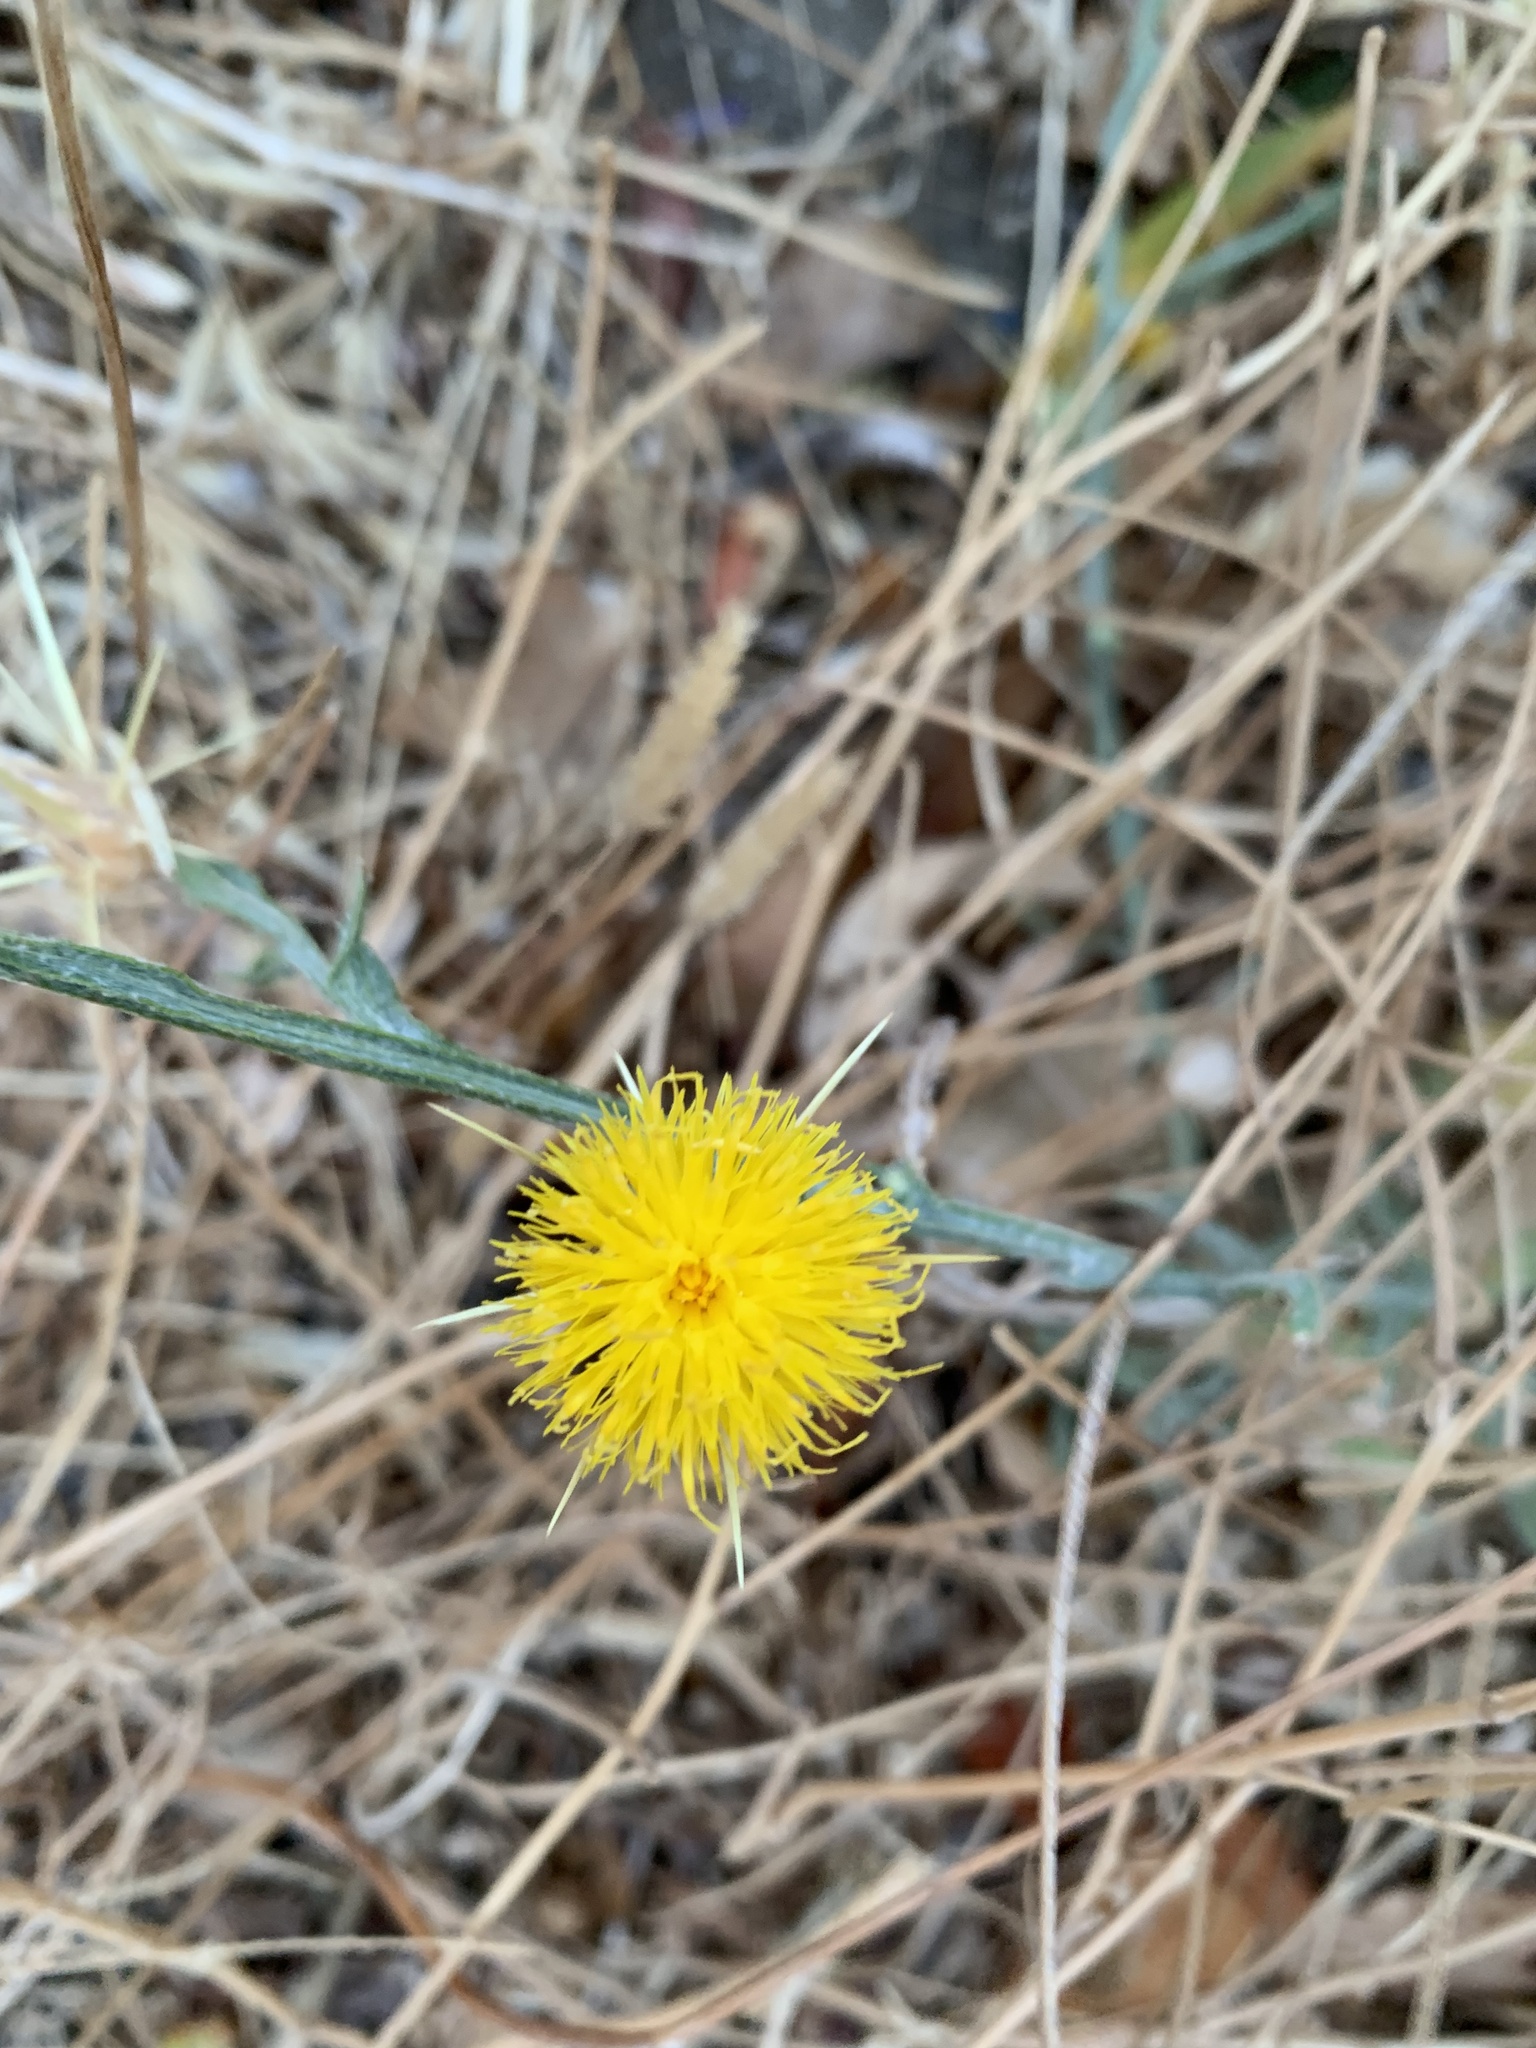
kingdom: Plantae
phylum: Tracheophyta
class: Magnoliopsida
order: Asterales
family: Asteraceae
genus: Centaurea
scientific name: Centaurea solstitialis
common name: Yellow star-thistle
